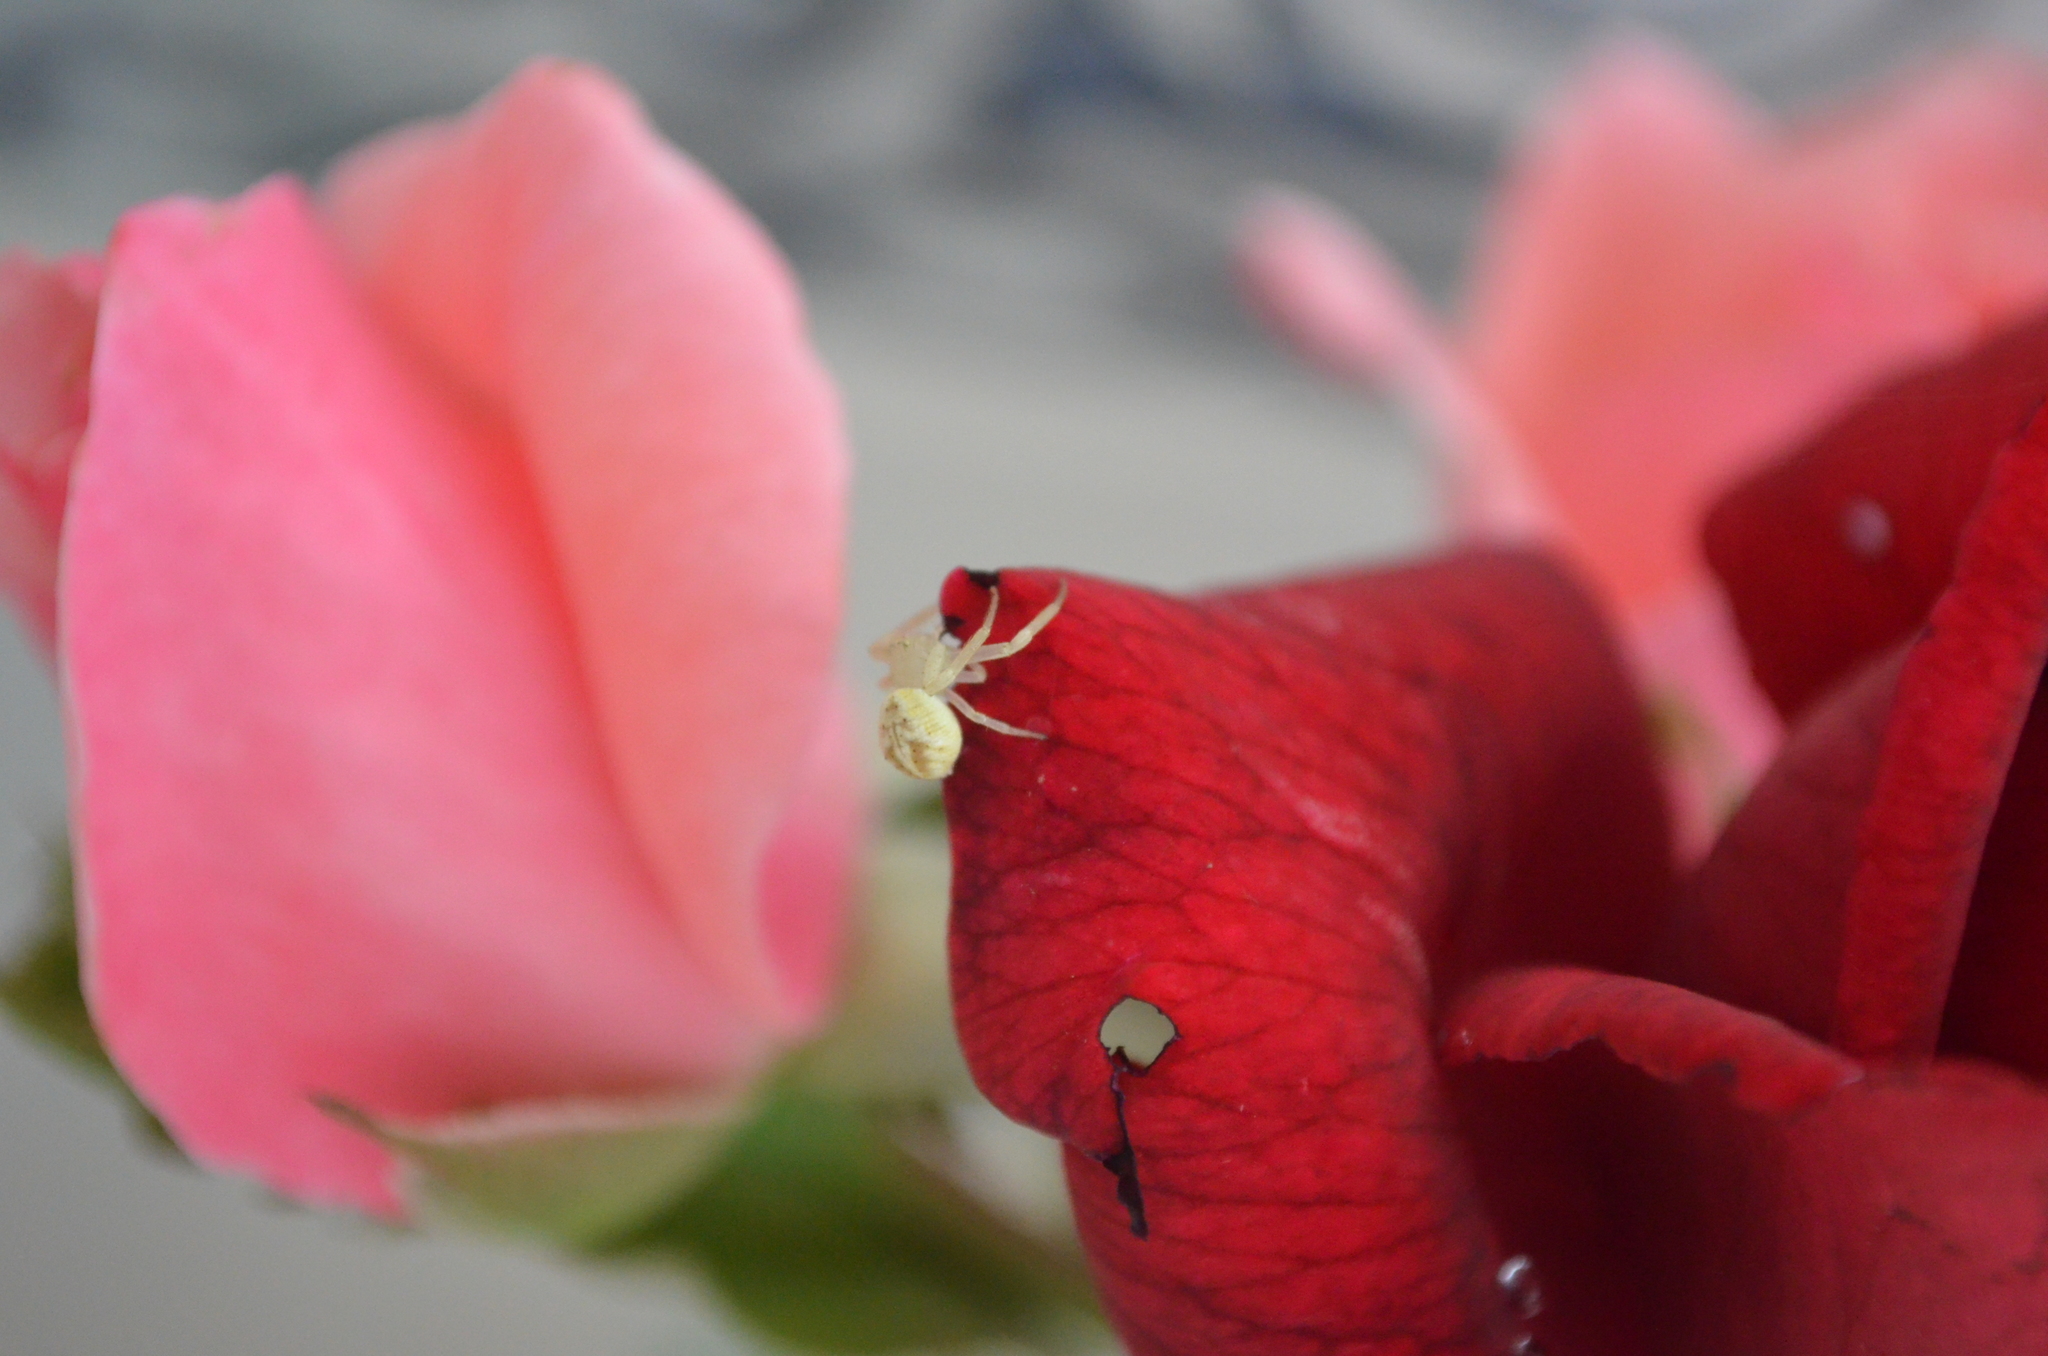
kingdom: Animalia
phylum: Arthropoda
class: Arachnida
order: Araneae
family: Thomisidae
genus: Misumenops
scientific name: Misumenops
